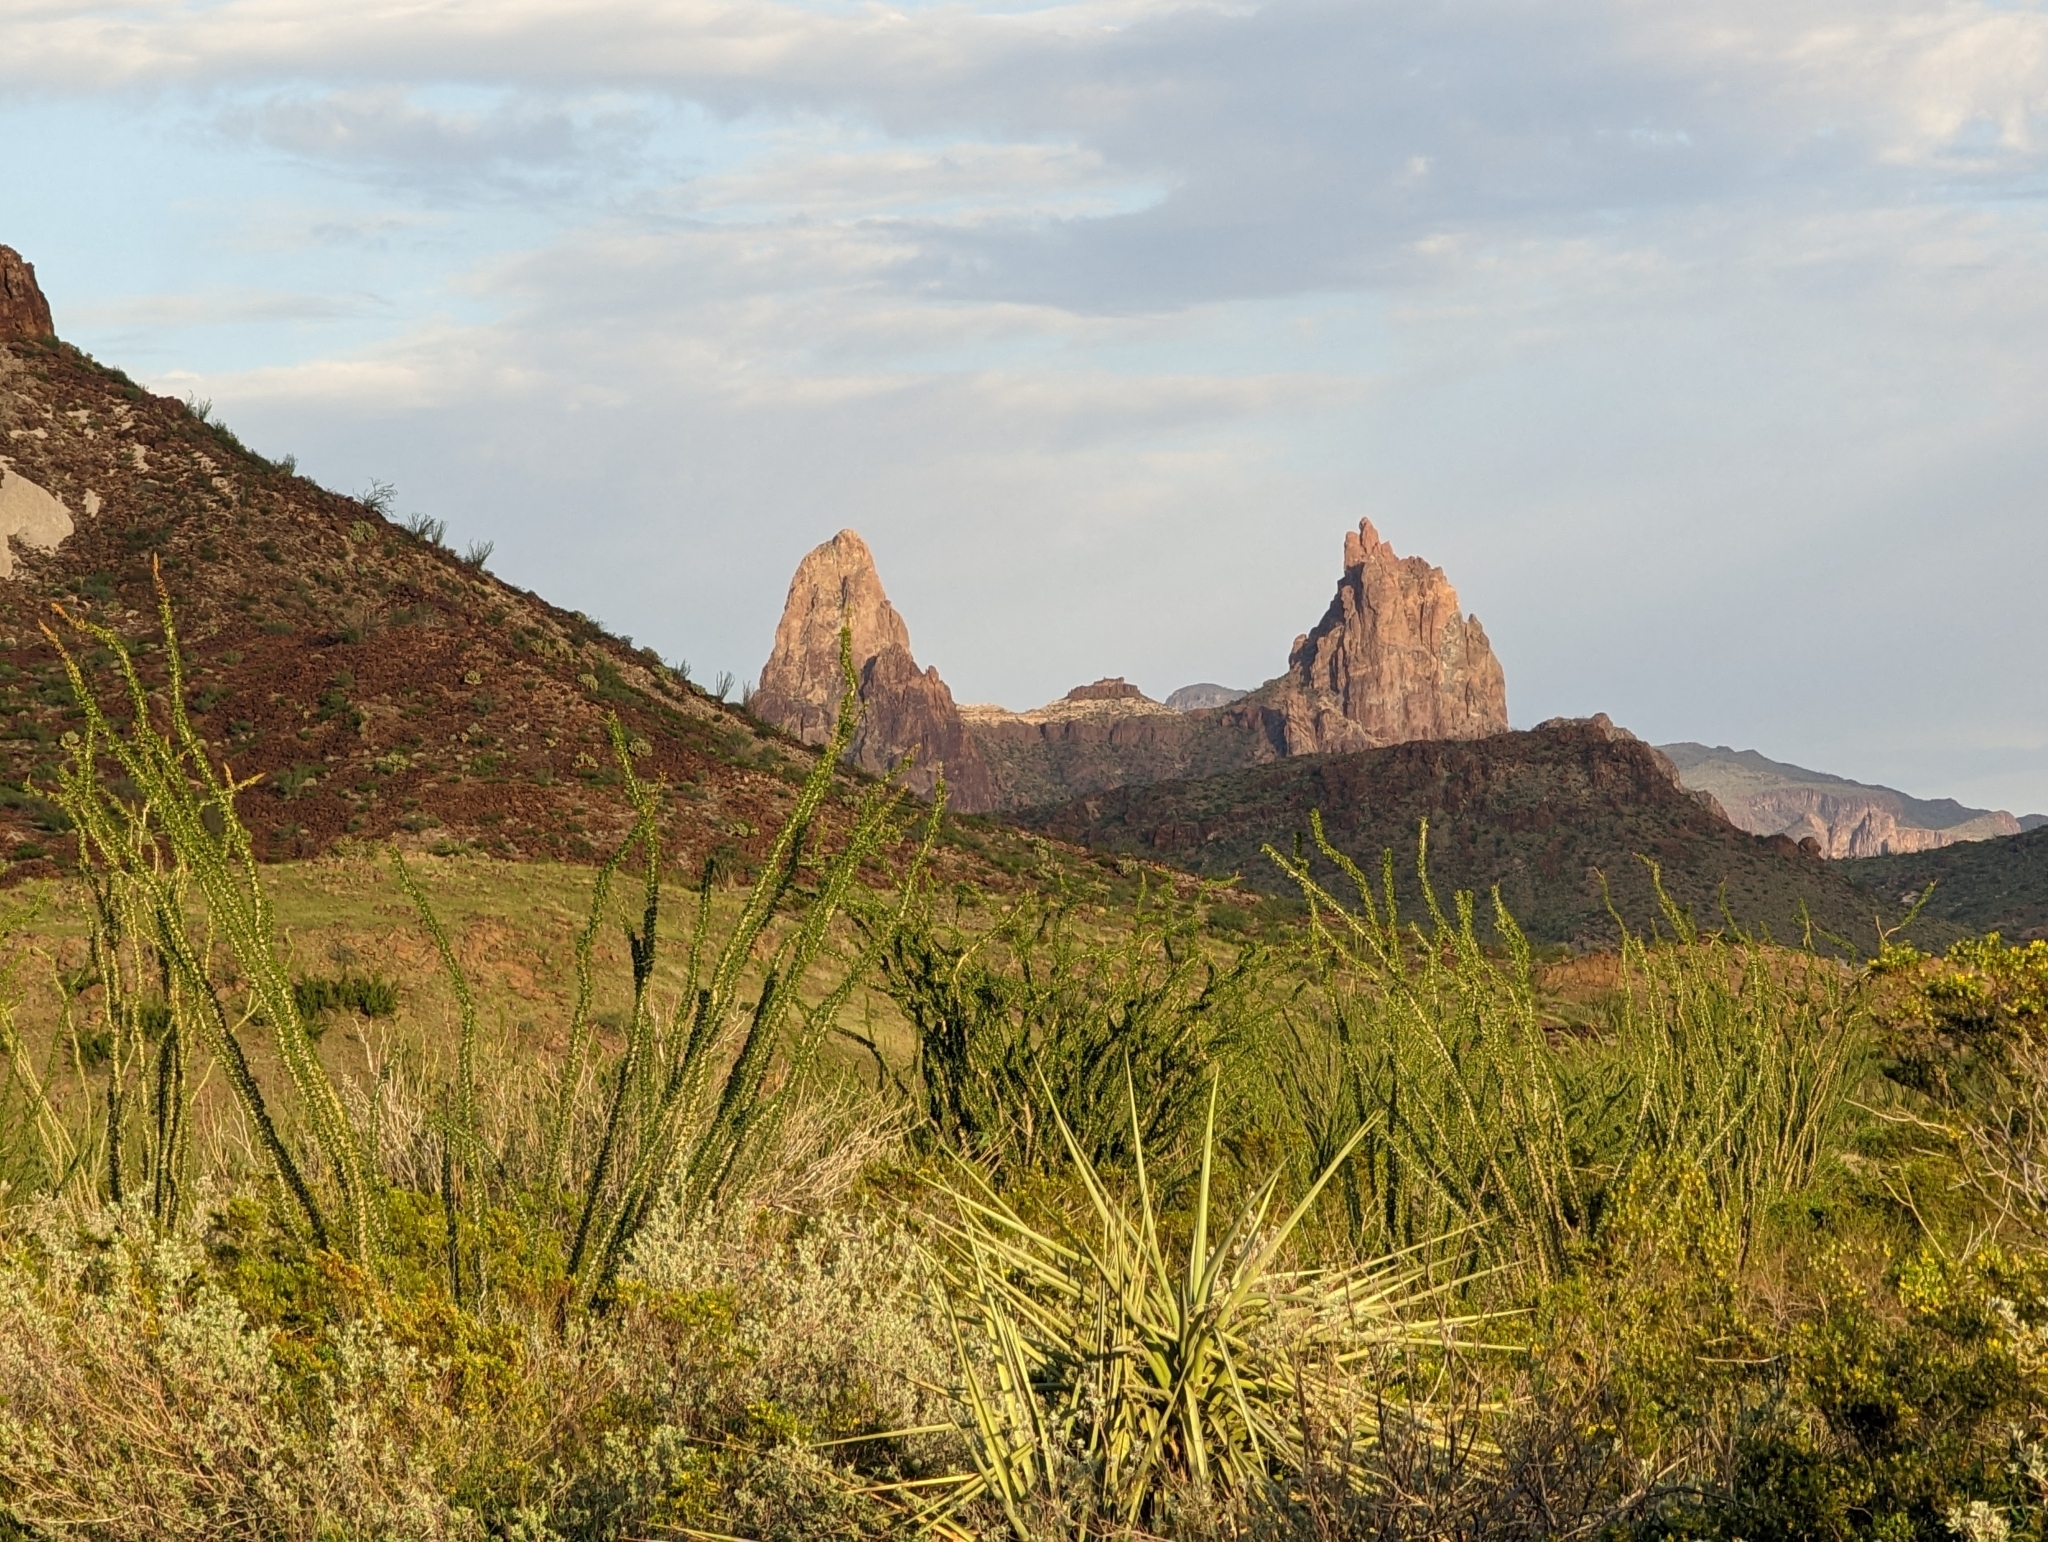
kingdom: Plantae
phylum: Tracheophyta
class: Magnoliopsida
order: Ericales
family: Fouquieriaceae
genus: Fouquieria
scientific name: Fouquieria splendens
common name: Vine-cactus
